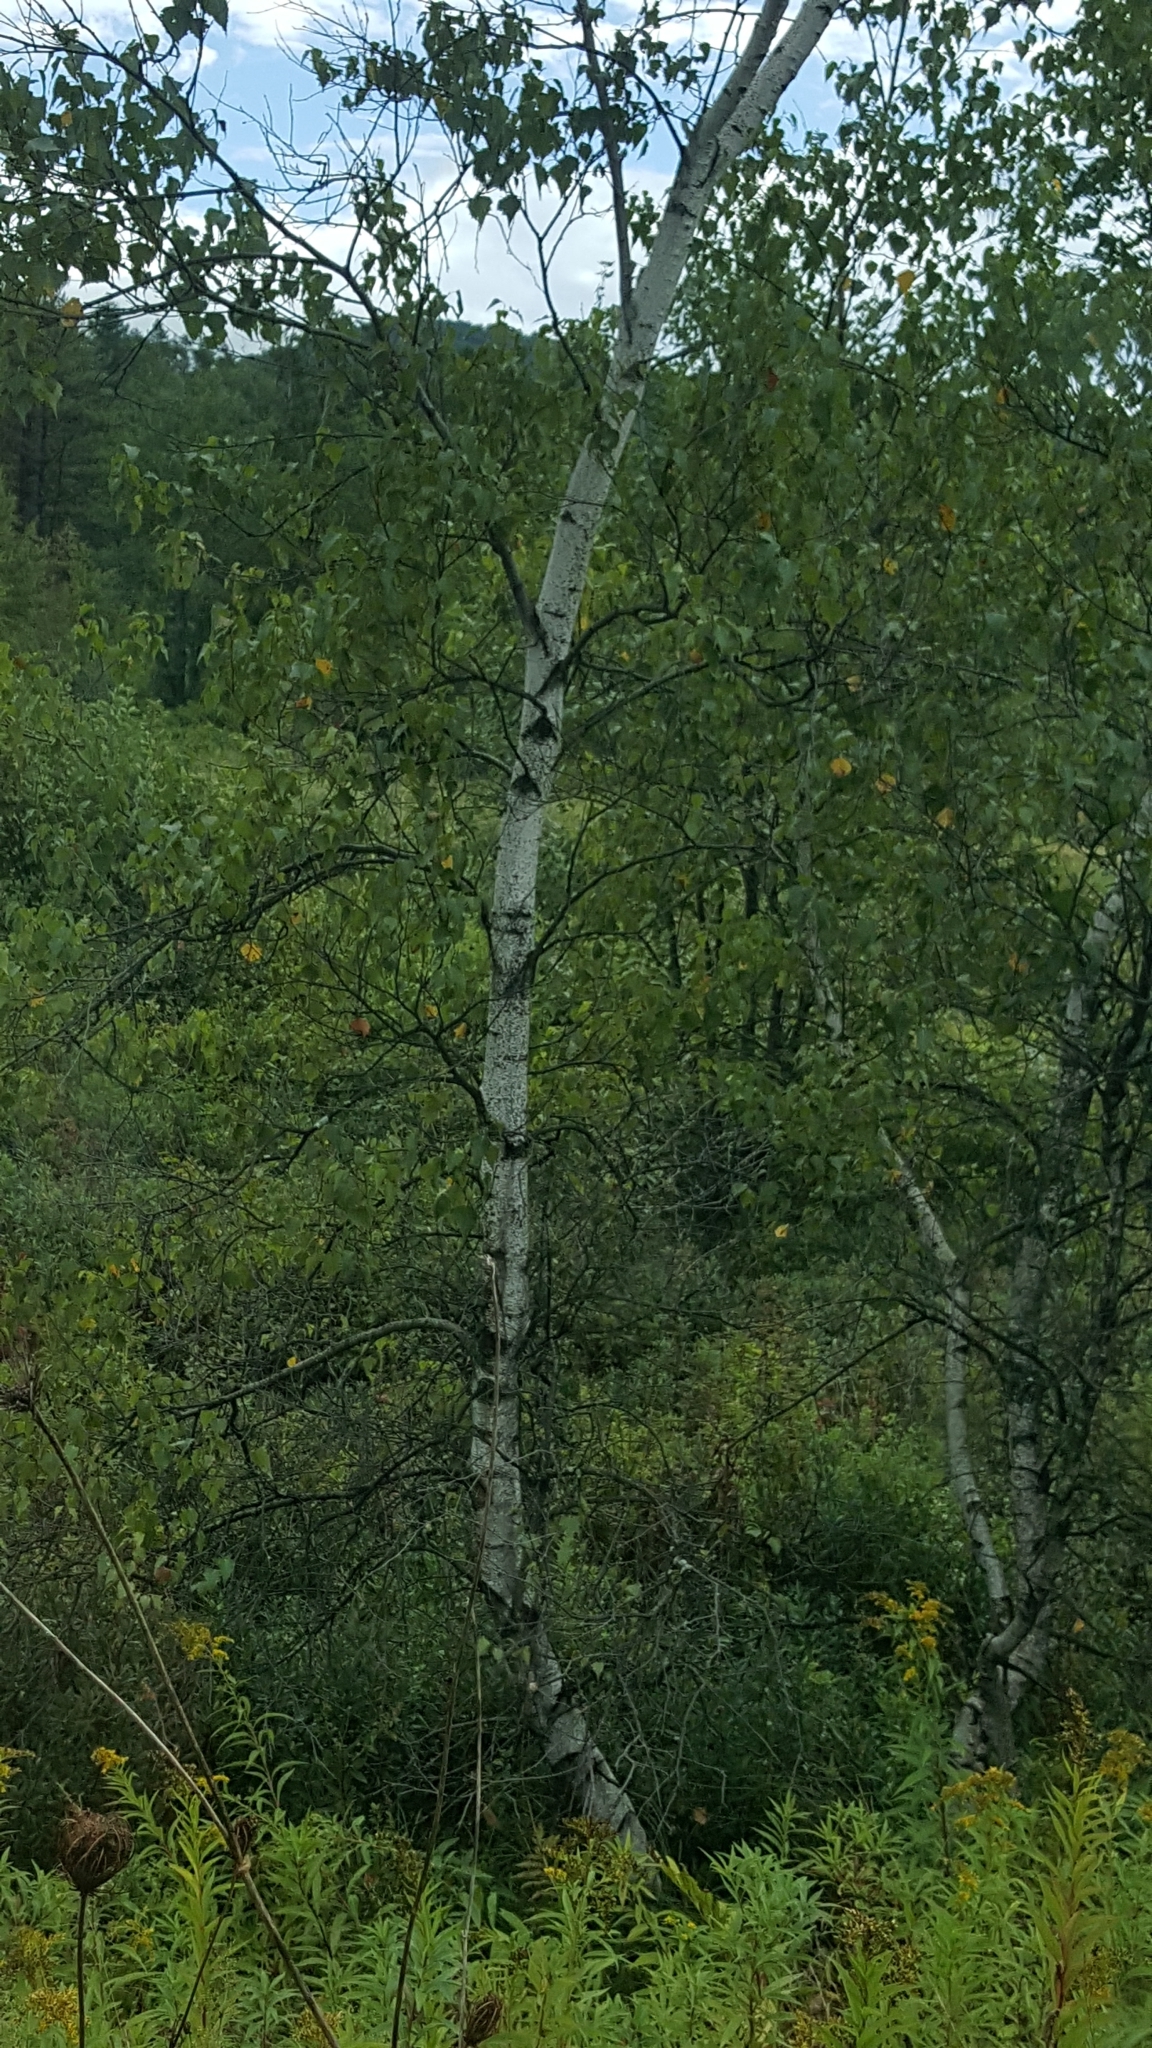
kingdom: Plantae
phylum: Tracheophyta
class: Magnoliopsida
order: Fagales
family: Betulaceae
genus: Betula
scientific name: Betula populifolia
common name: Fire birch
